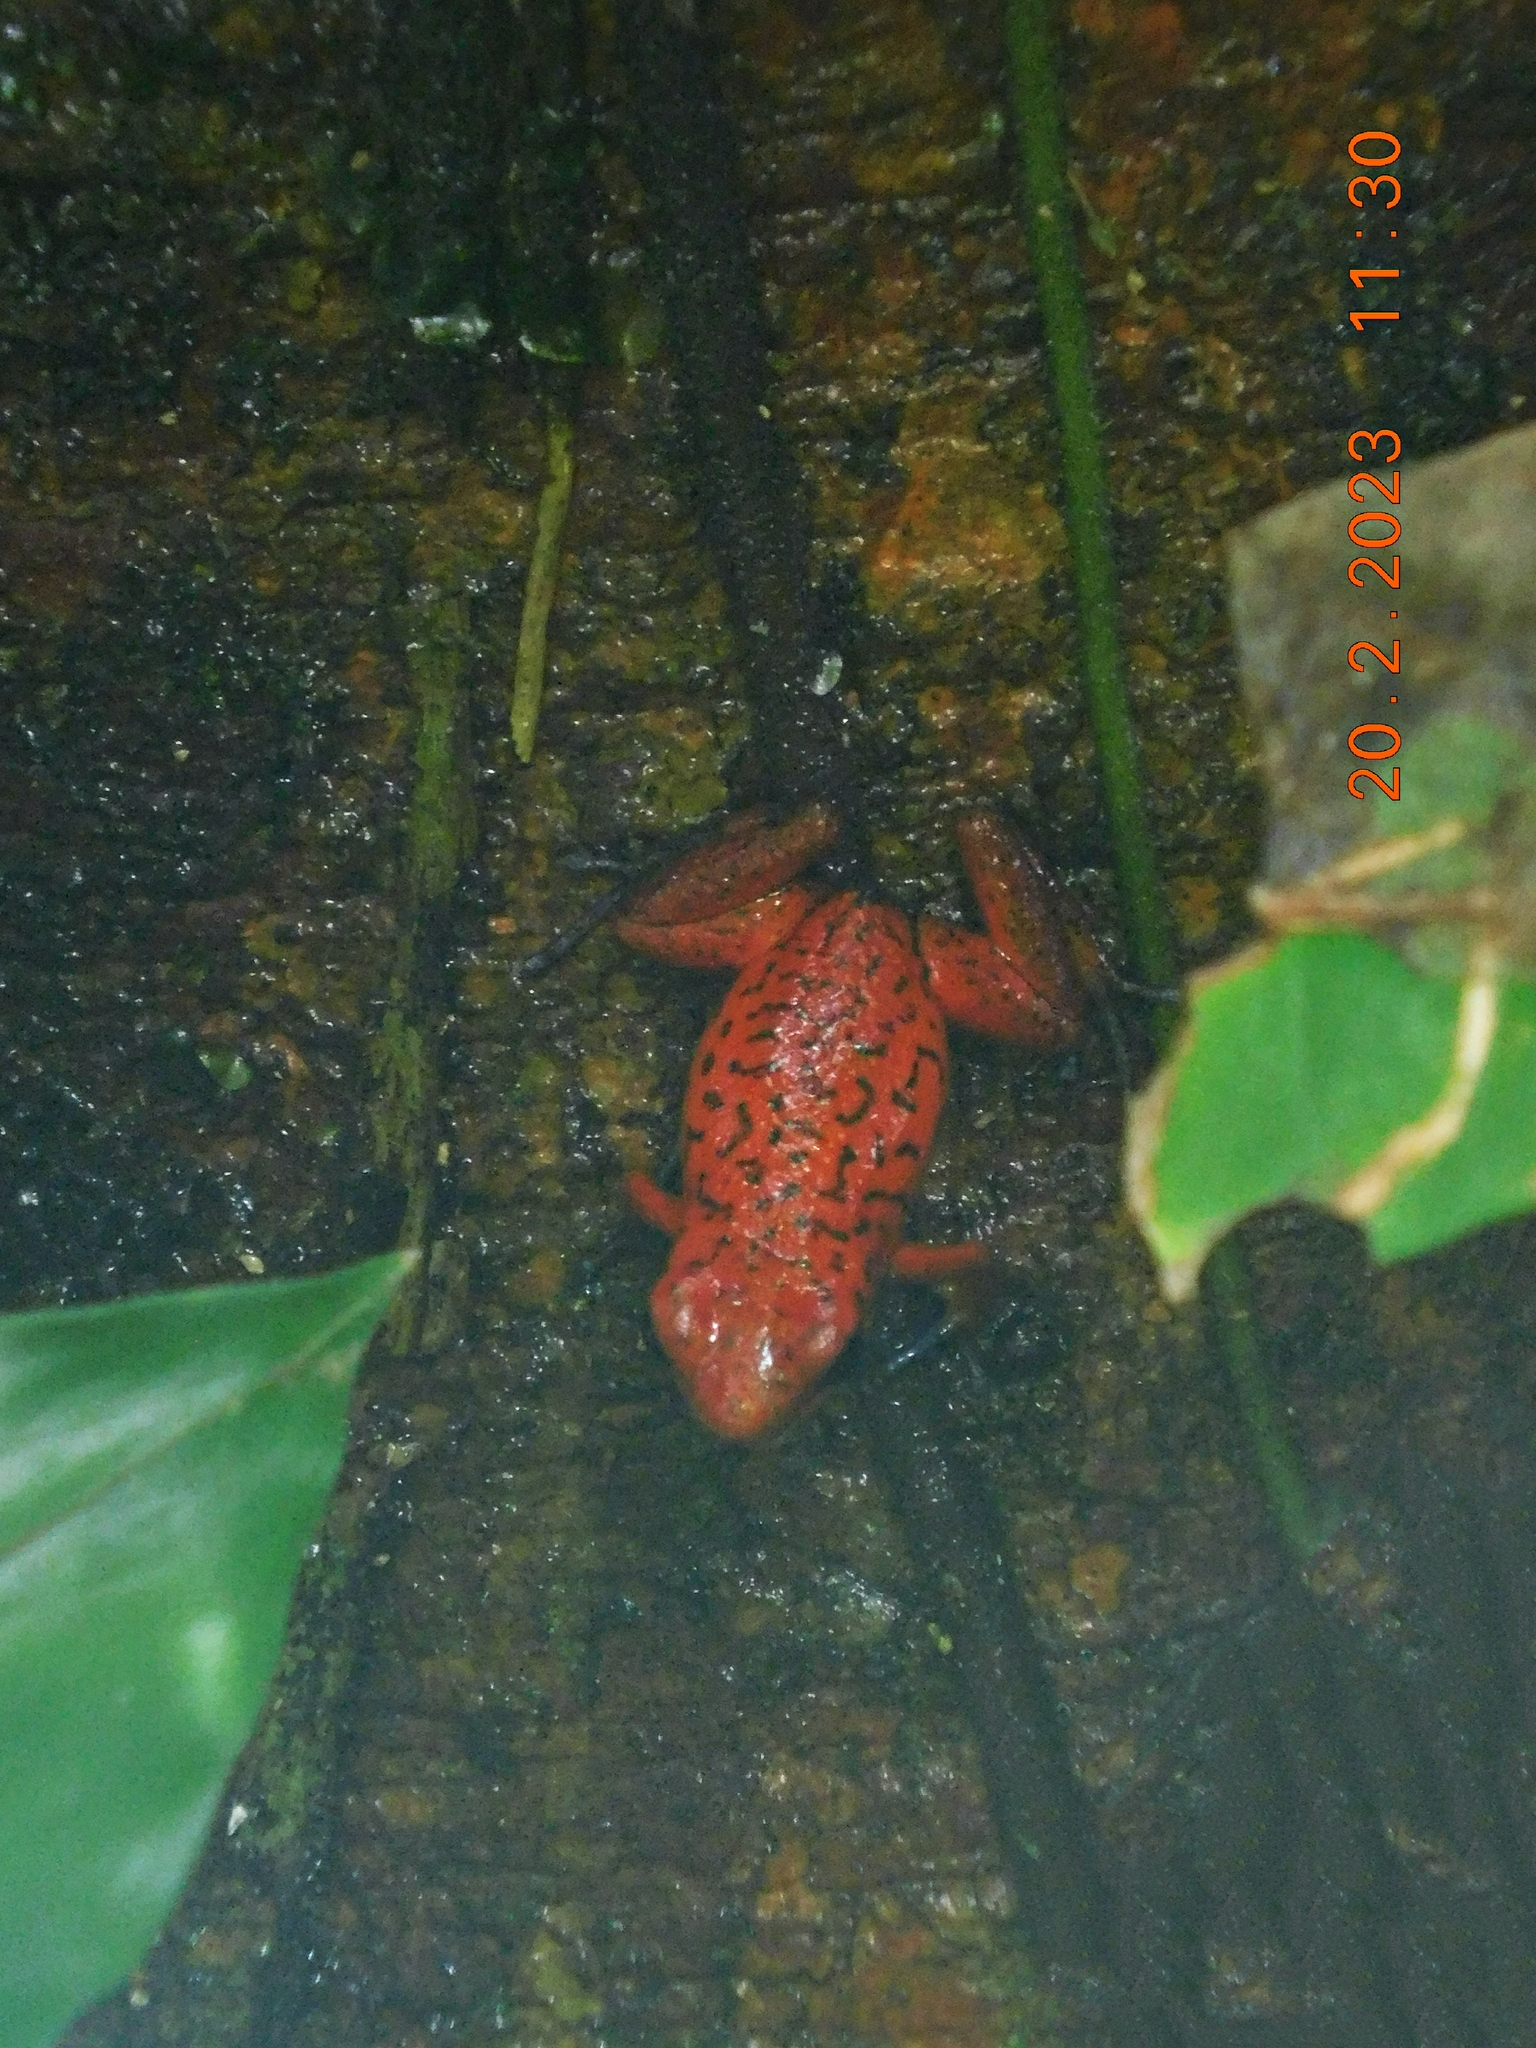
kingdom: Animalia
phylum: Chordata
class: Amphibia
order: Anura
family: Dendrobatidae
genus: Oophaga
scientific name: Oophaga pumilio
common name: Flaming poison frog
